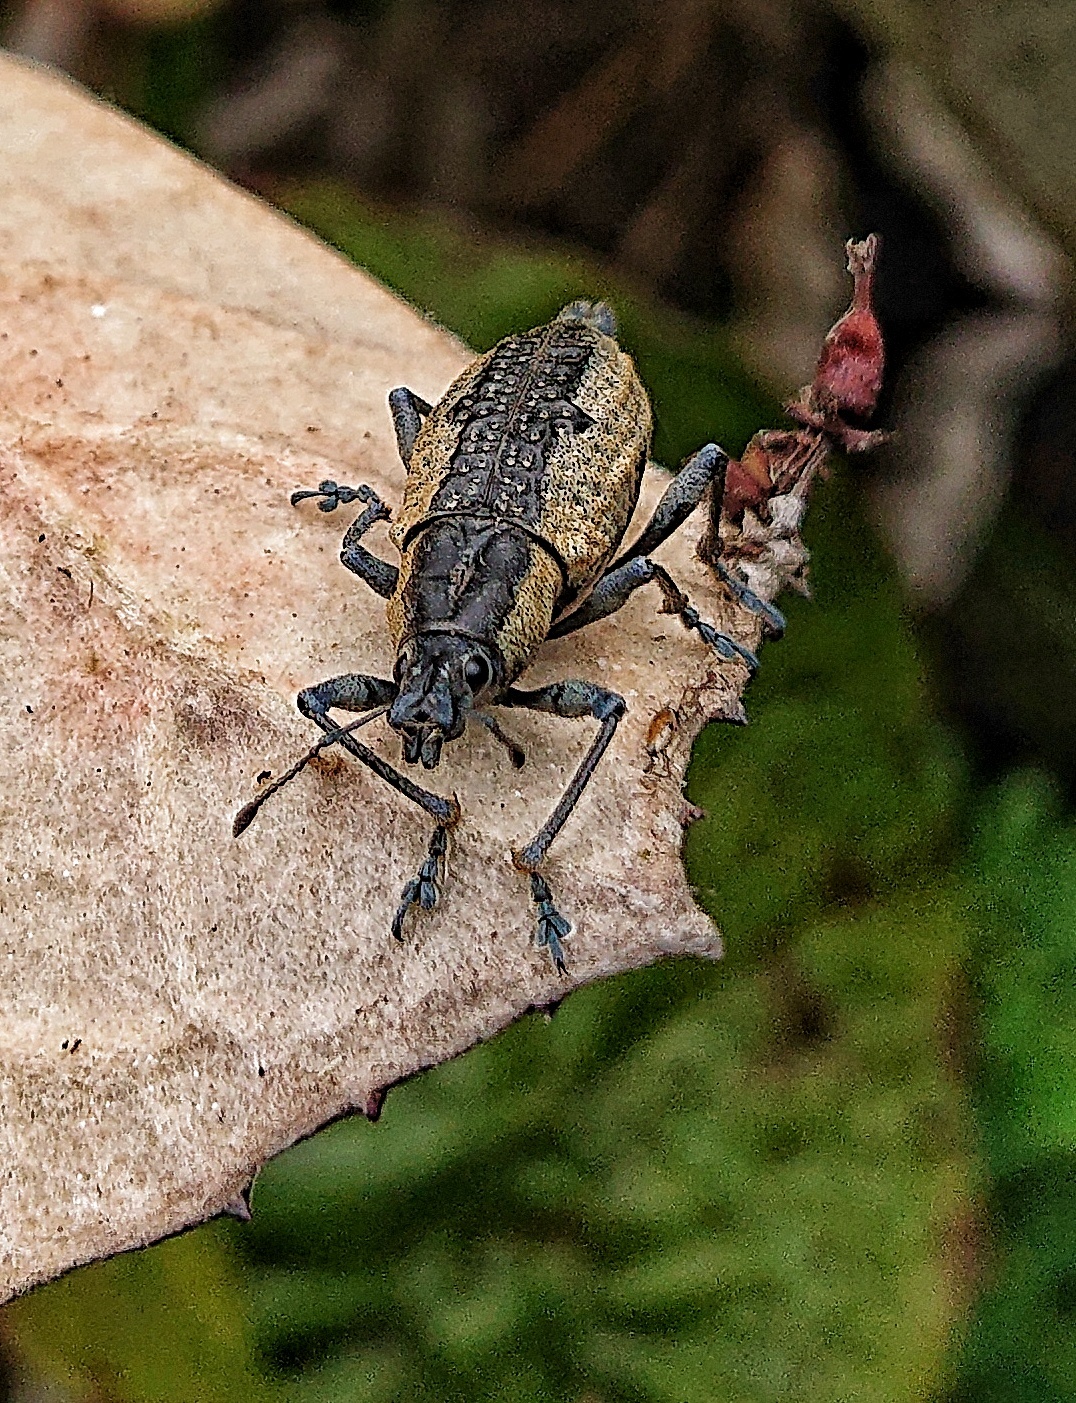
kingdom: Animalia
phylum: Arthropoda
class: Insecta
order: Coleoptera
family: Curculionidae
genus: Exorides
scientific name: Exorides pedunculatus
